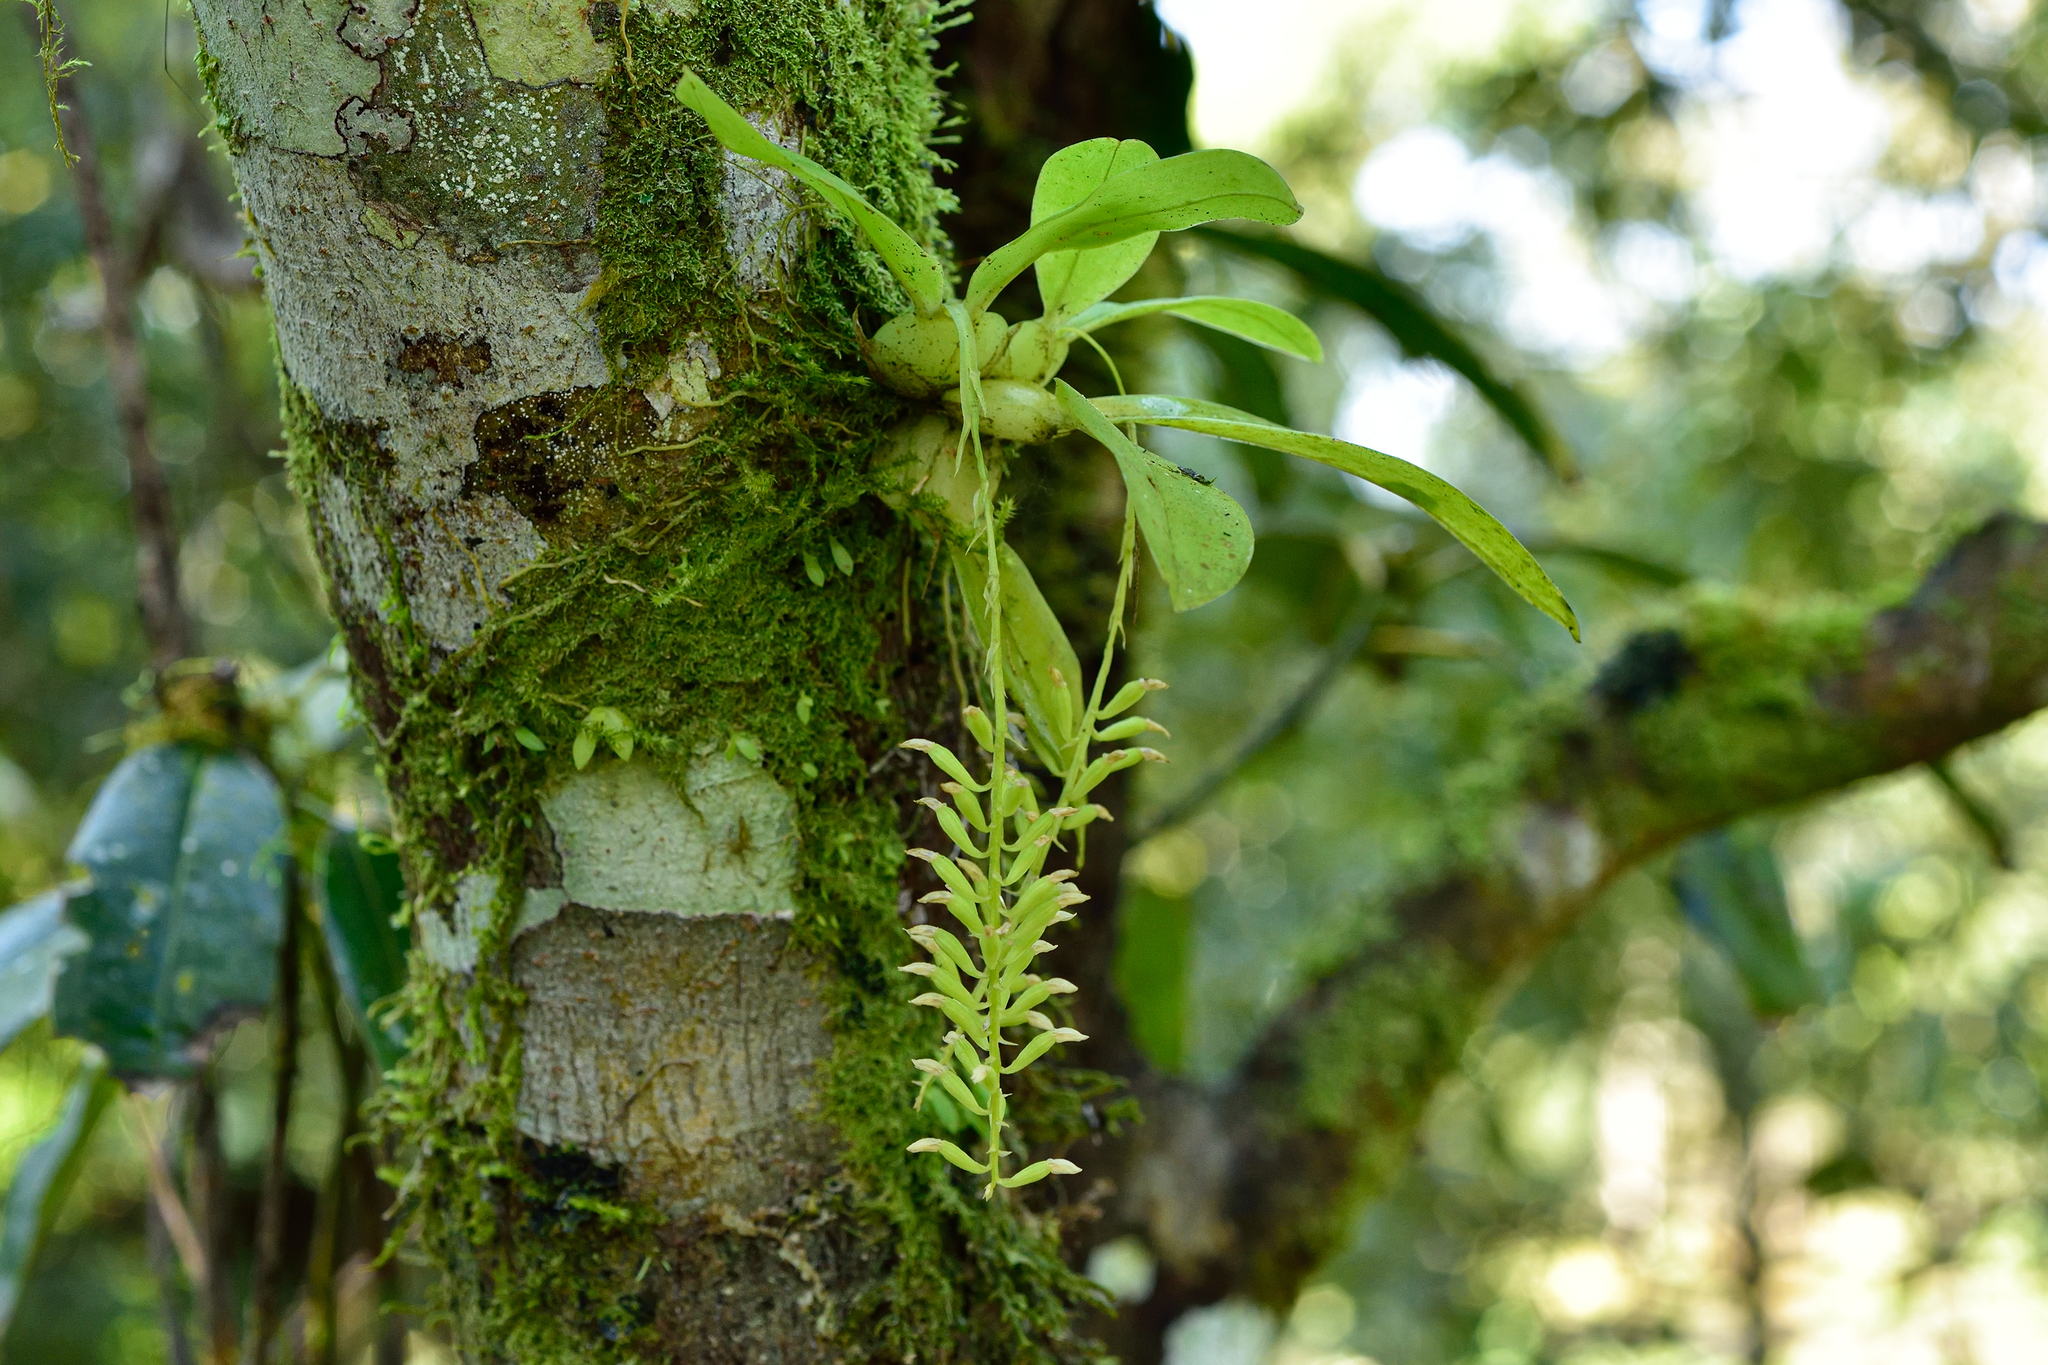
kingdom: Plantae
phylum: Tracheophyta
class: Liliopsida
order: Asparagales
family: Orchidaceae
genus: Liparis
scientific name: Liparis elliptica
